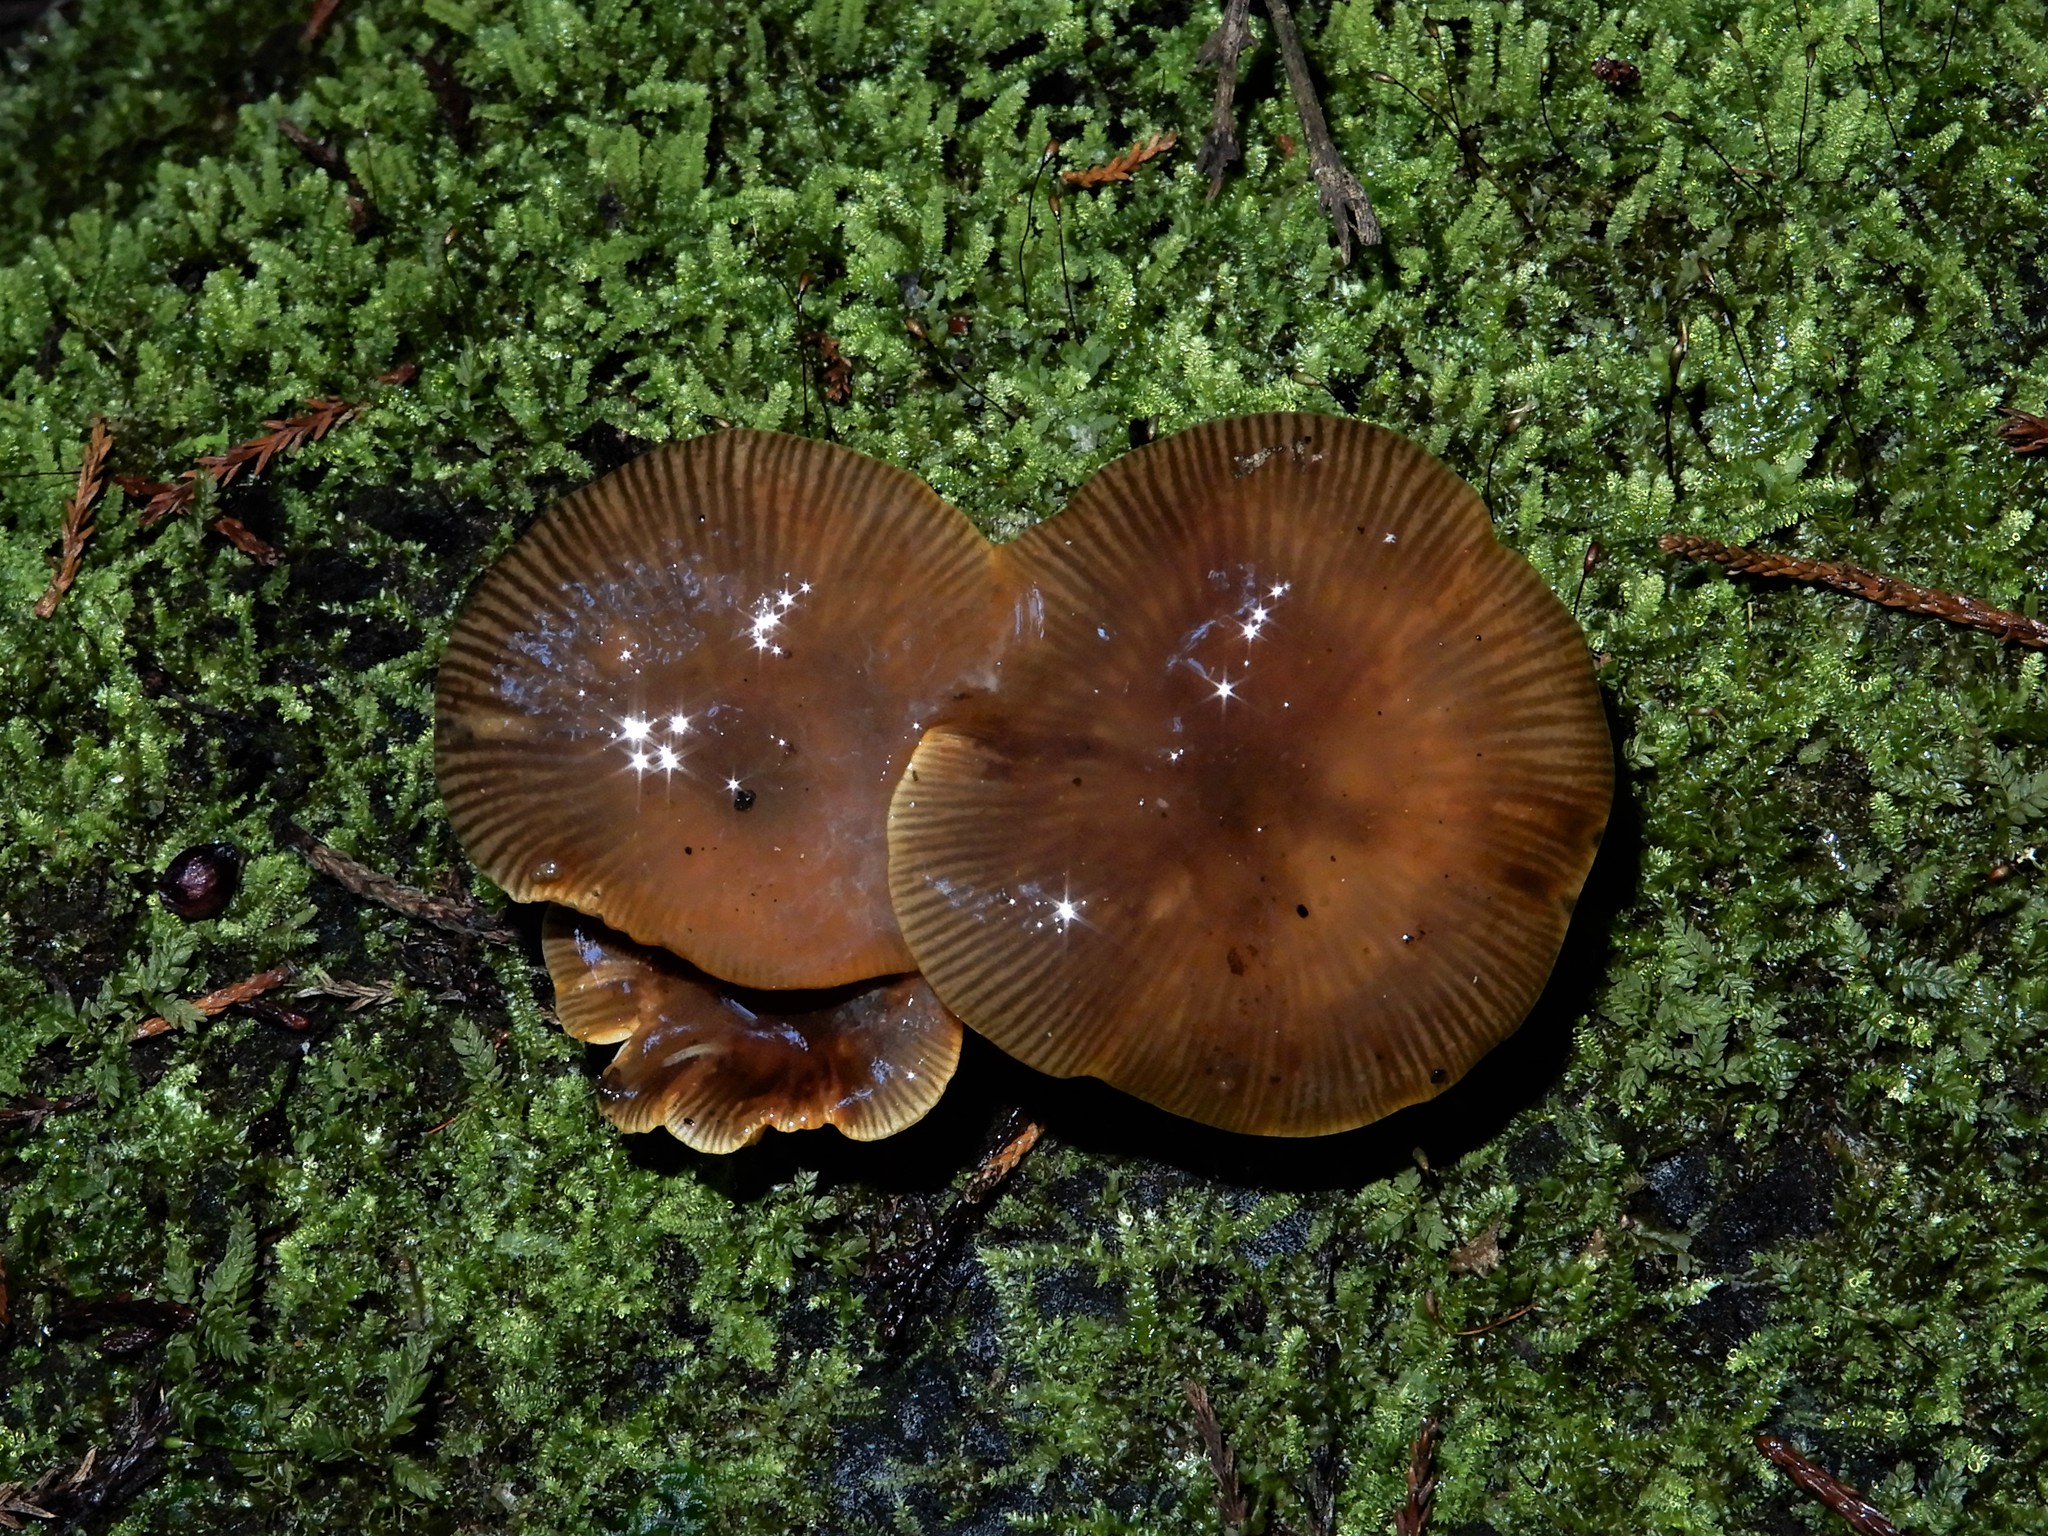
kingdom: Fungi
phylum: Basidiomycota
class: Agaricomycetes
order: Agaricales
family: Mycenaceae
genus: Mycena
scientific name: Mycena leaiana
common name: Orange mycena
